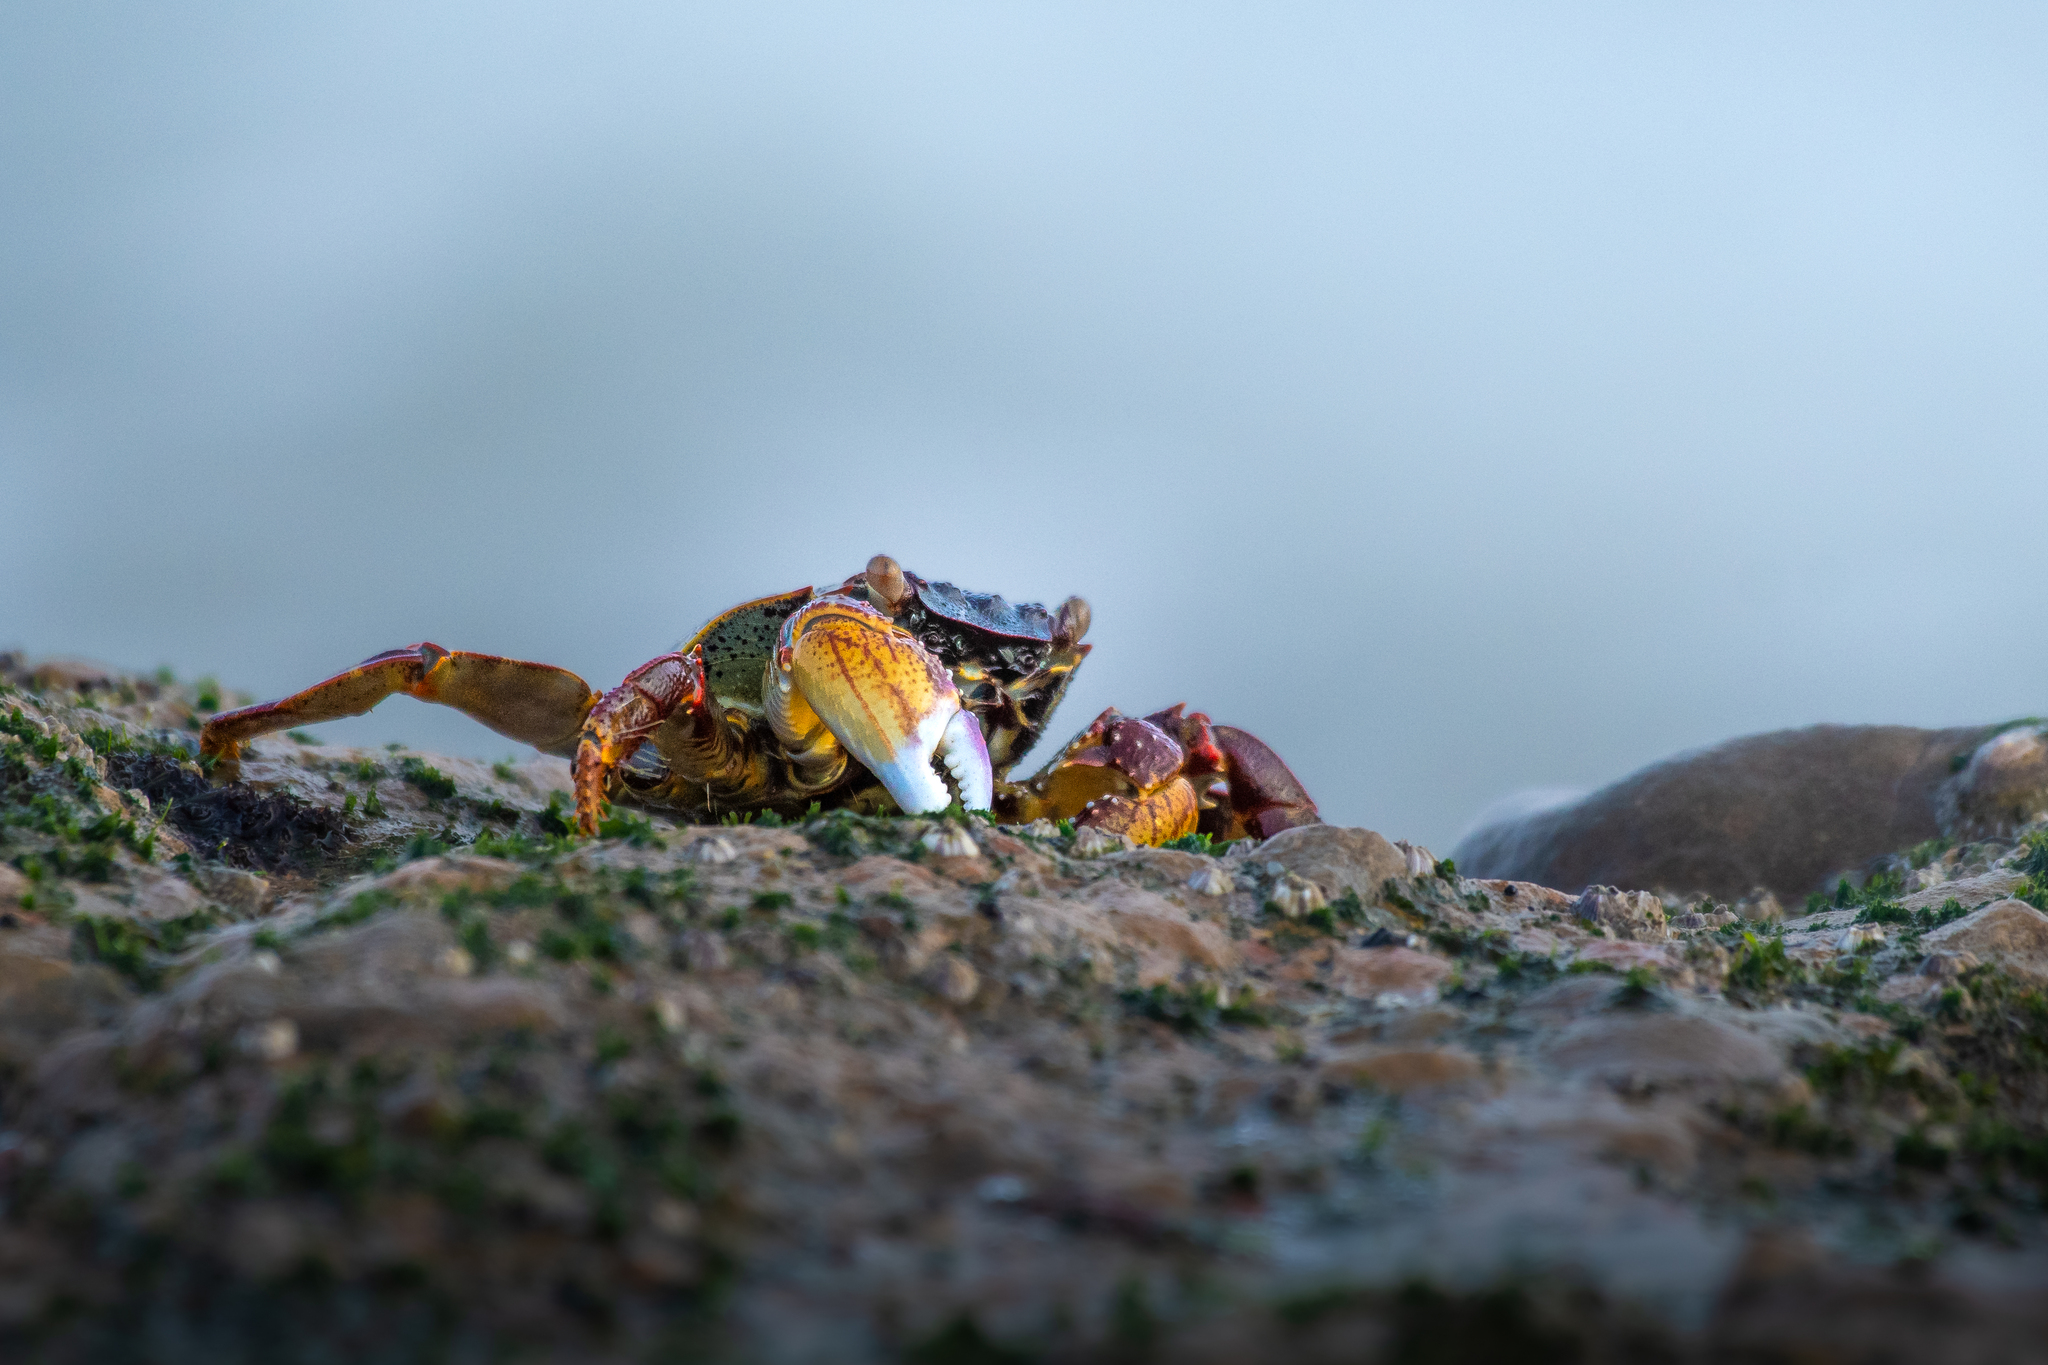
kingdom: Animalia
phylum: Arthropoda
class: Malacostraca
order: Decapoda
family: Grapsidae
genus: Grapsus
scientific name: Grapsus albolineatus
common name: Mottled lightfoot crab
